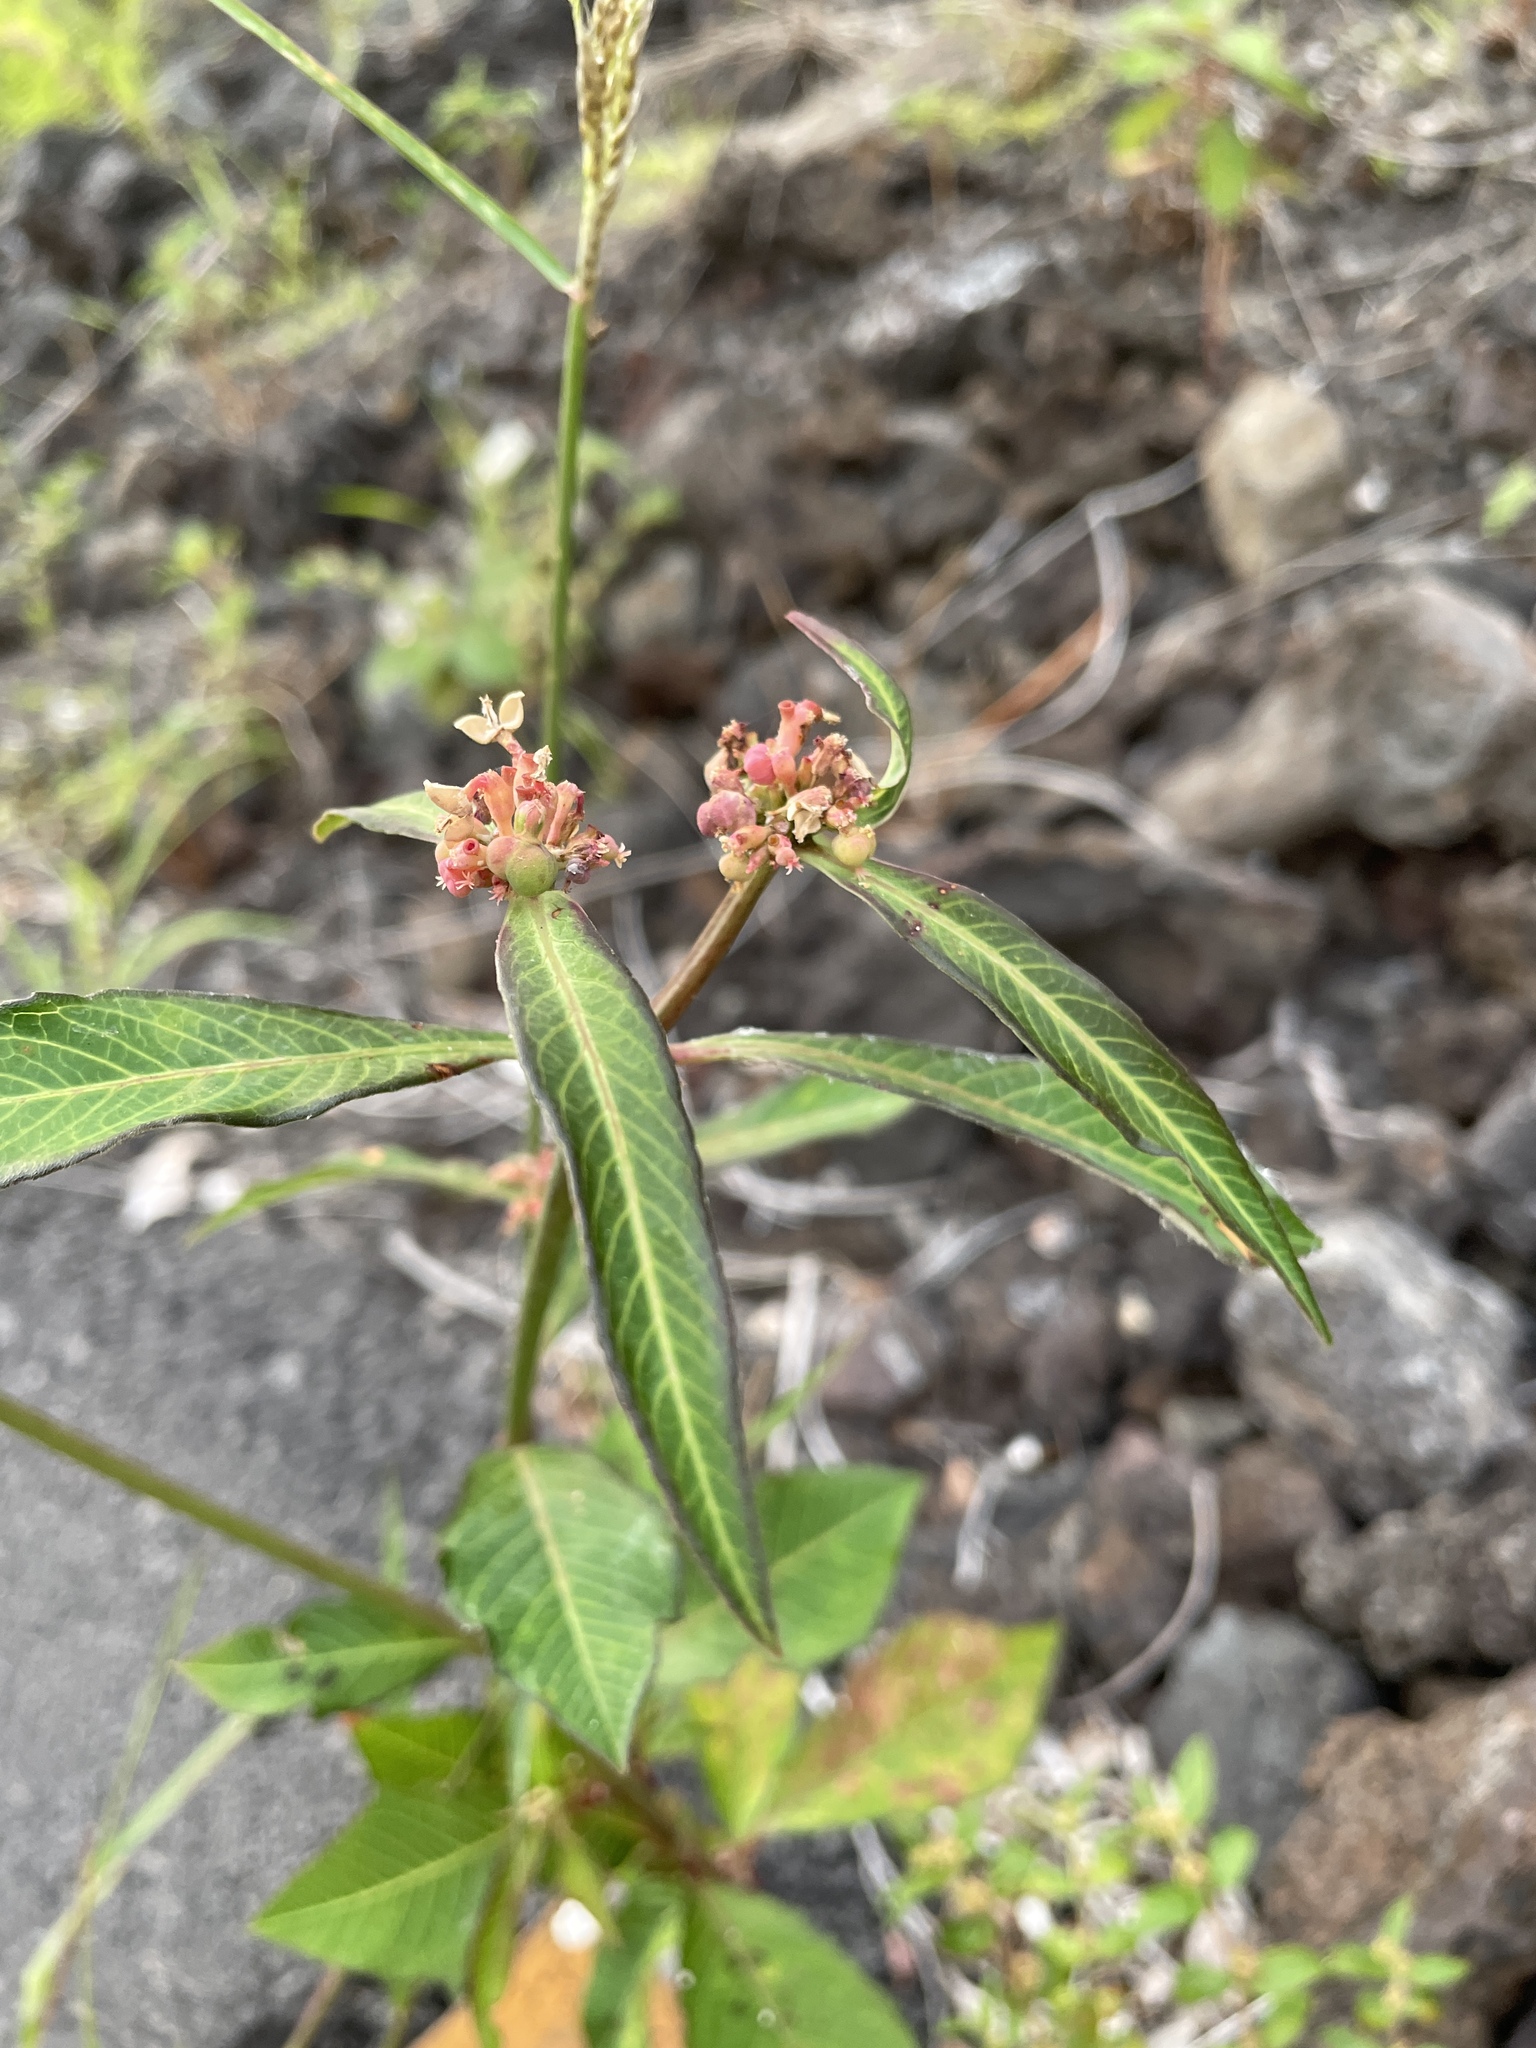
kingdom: Plantae
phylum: Tracheophyta
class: Magnoliopsida
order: Malpighiales
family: Euphorbiaceae
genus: Euphorbia
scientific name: Euphorbia heterophylla
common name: Mexican fireplant
